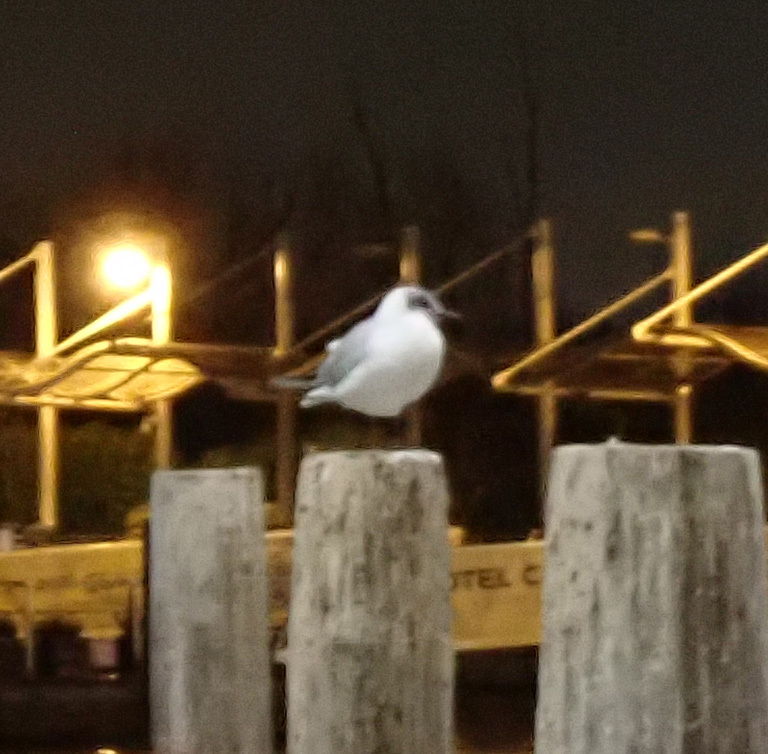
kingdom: Animalia
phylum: Chordata
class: Aves
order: Charadriiformes
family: Laridae
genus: Chroicocephalus
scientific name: Chroicocephalus ridibundus
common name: Black-headed gull
